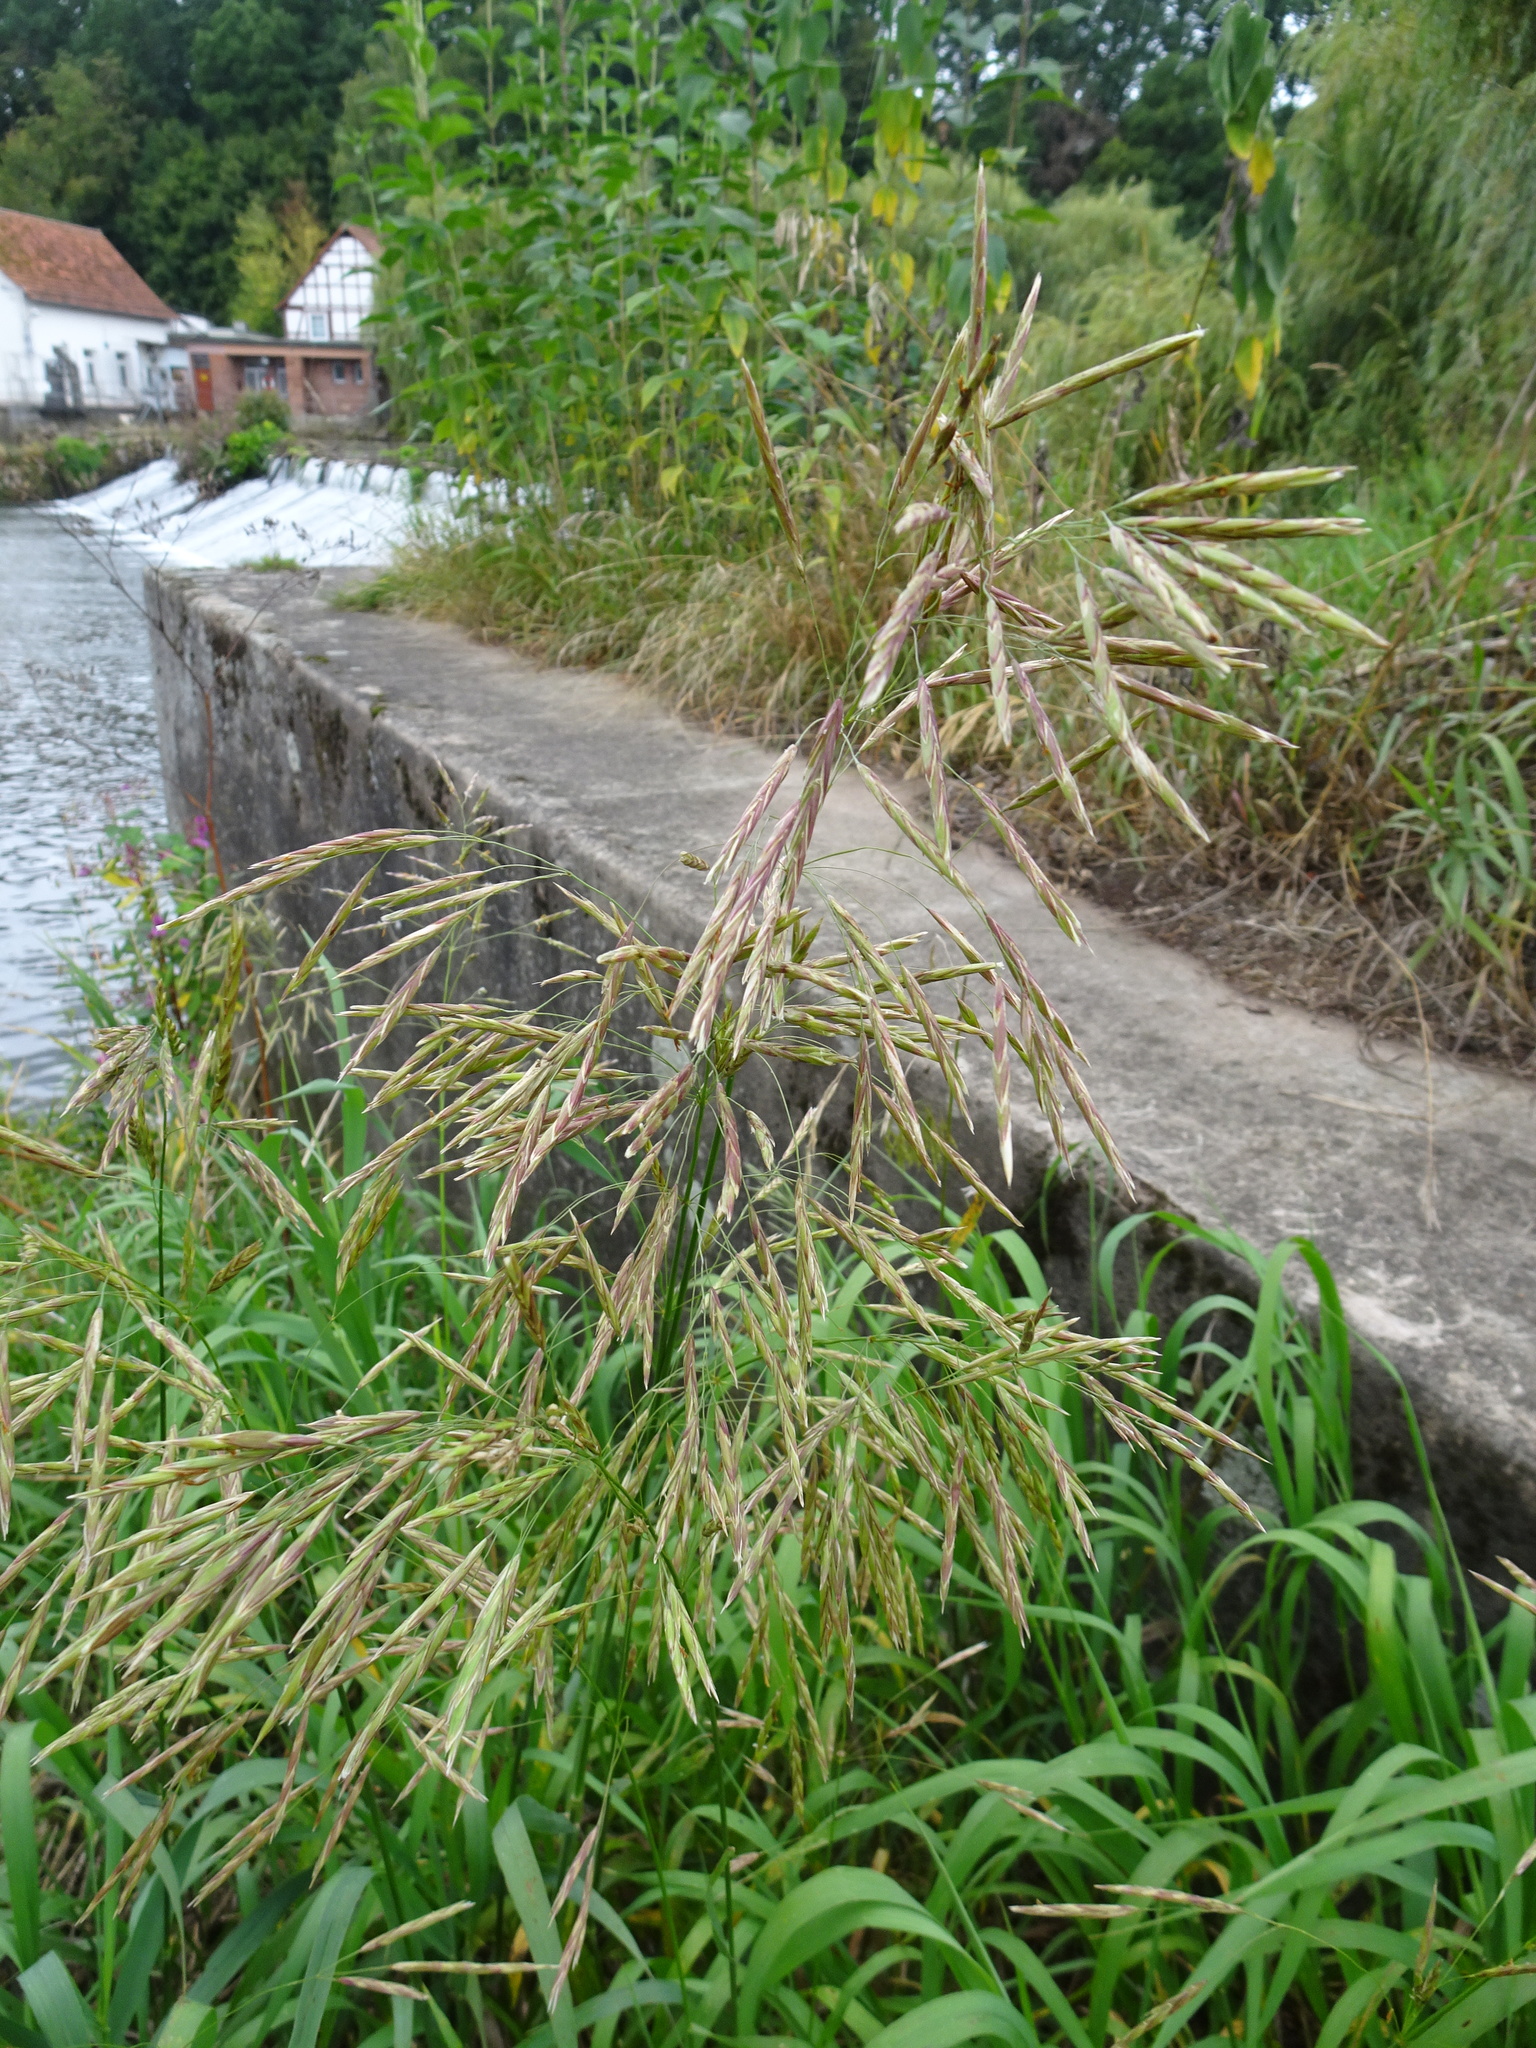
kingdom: Plantae
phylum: Tracheophyta
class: Liliopsida
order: Poales
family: Poaceae
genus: Bromus
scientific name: Bromus inermis
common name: Smooth brome
